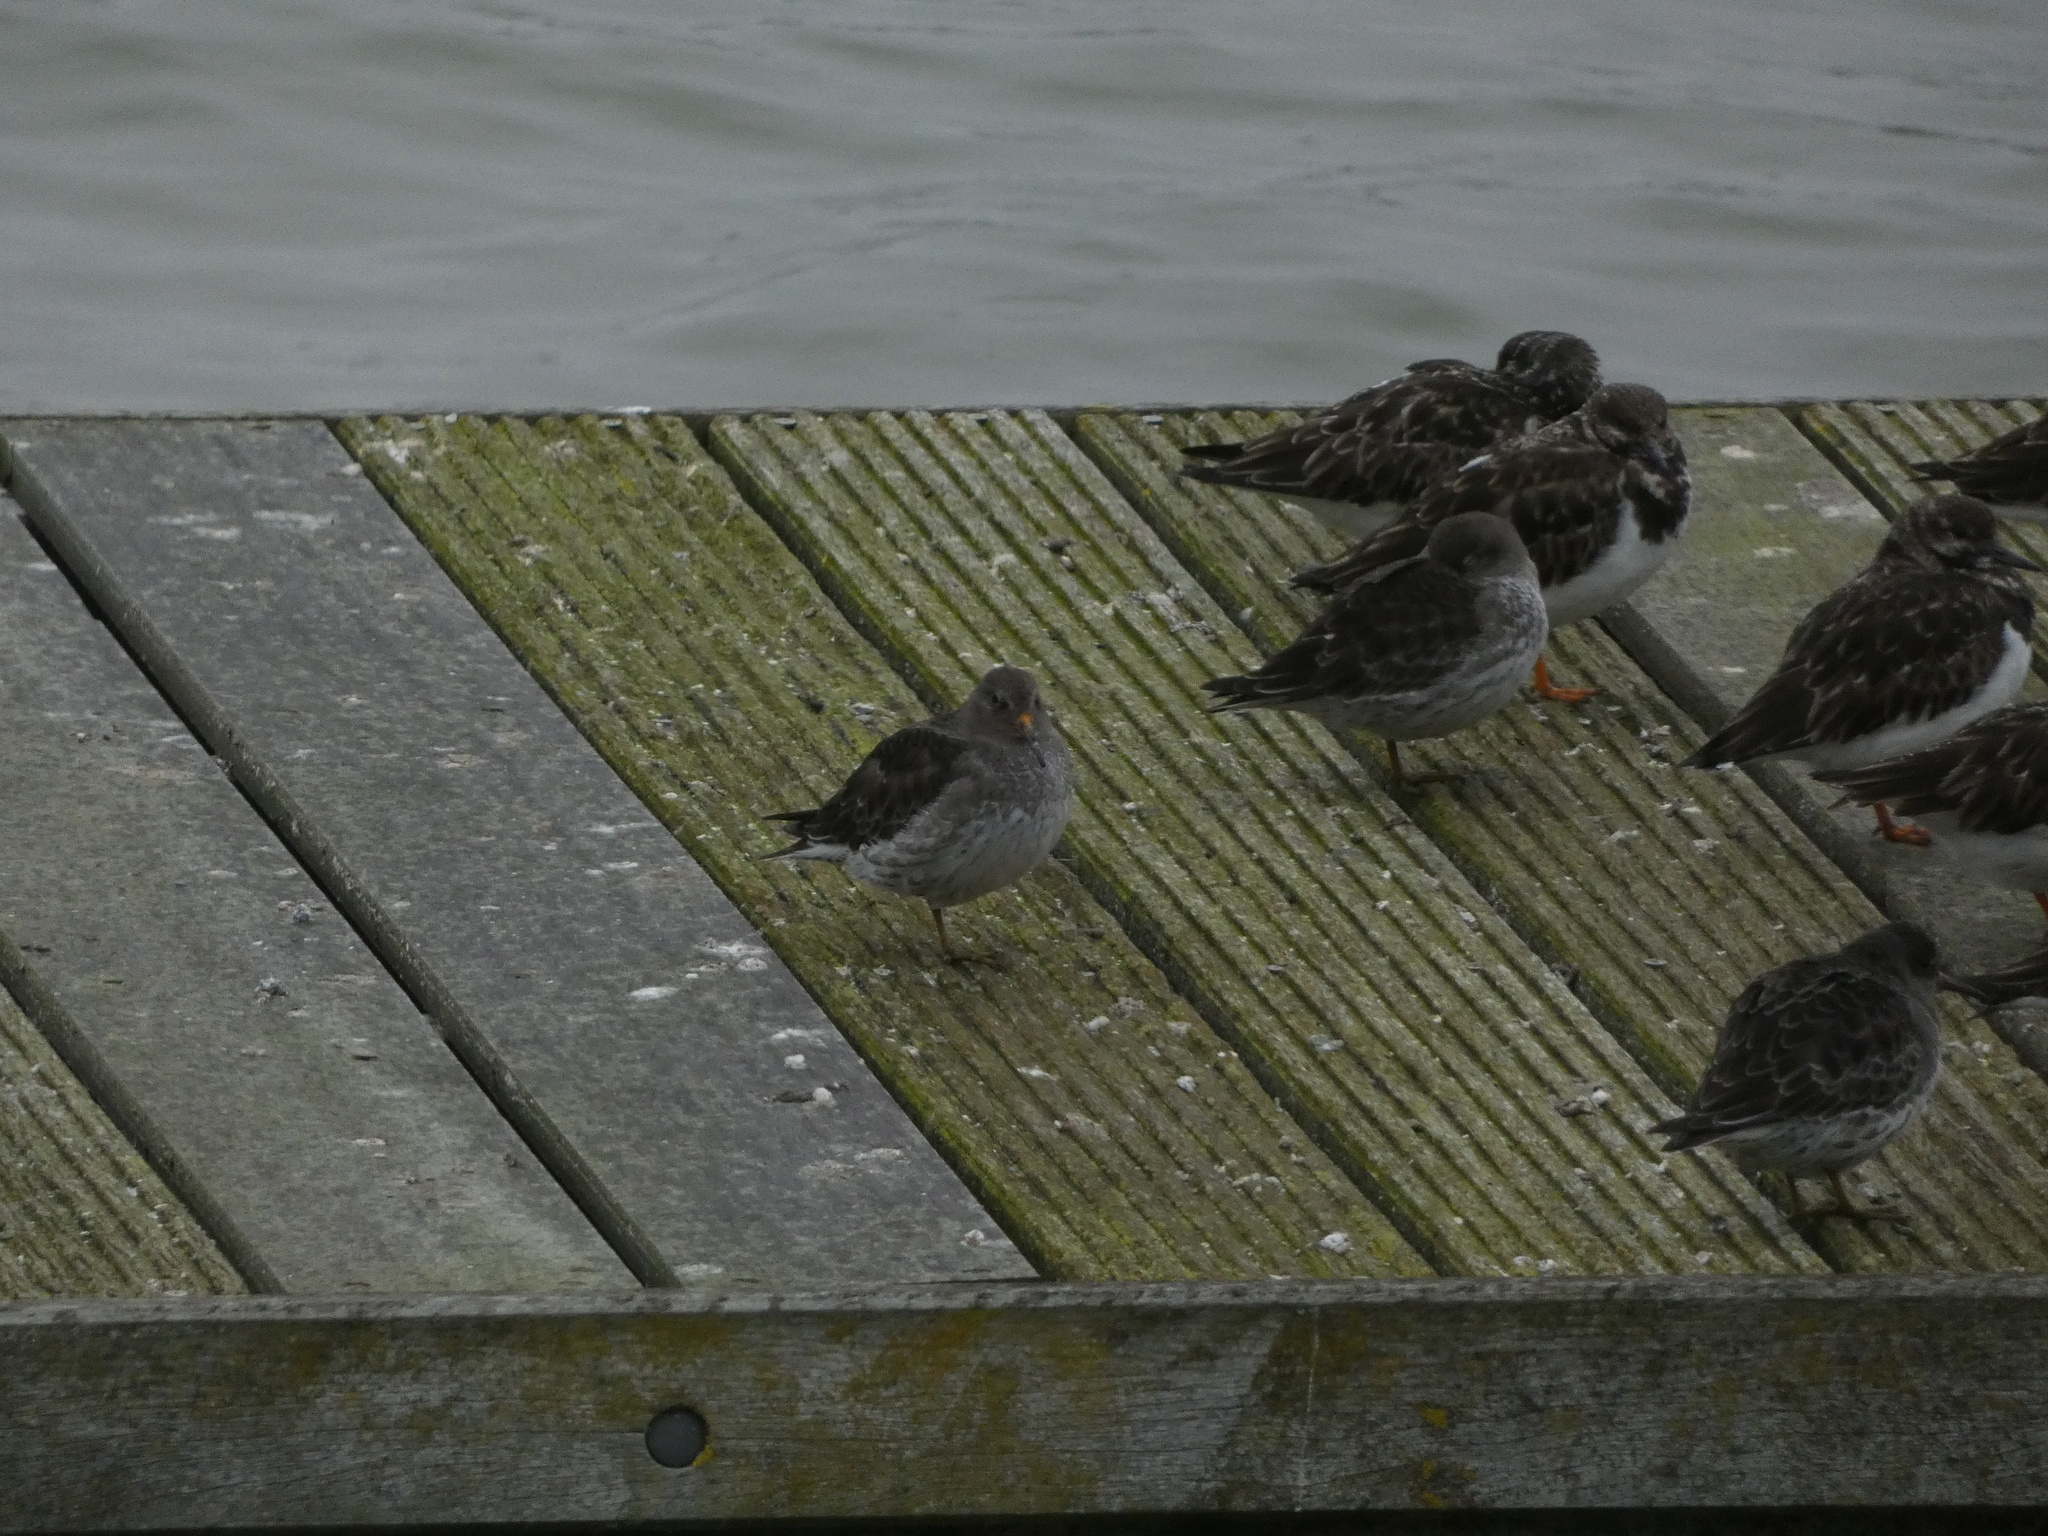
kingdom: Animalia
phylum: Chordata
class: Aves
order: Charadriiformes
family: Scolopacidae
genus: Calidris
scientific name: Calidris maritima
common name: Purple sandpiper
